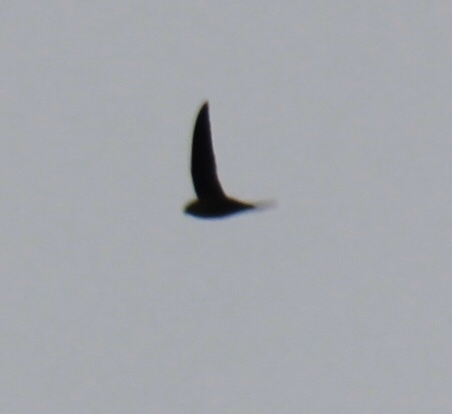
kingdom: Animalia
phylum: Chordata
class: Aves
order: Apodiformes
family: Apodidae
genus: Chaetura
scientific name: Chaetura pelagica
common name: Chimney swift
